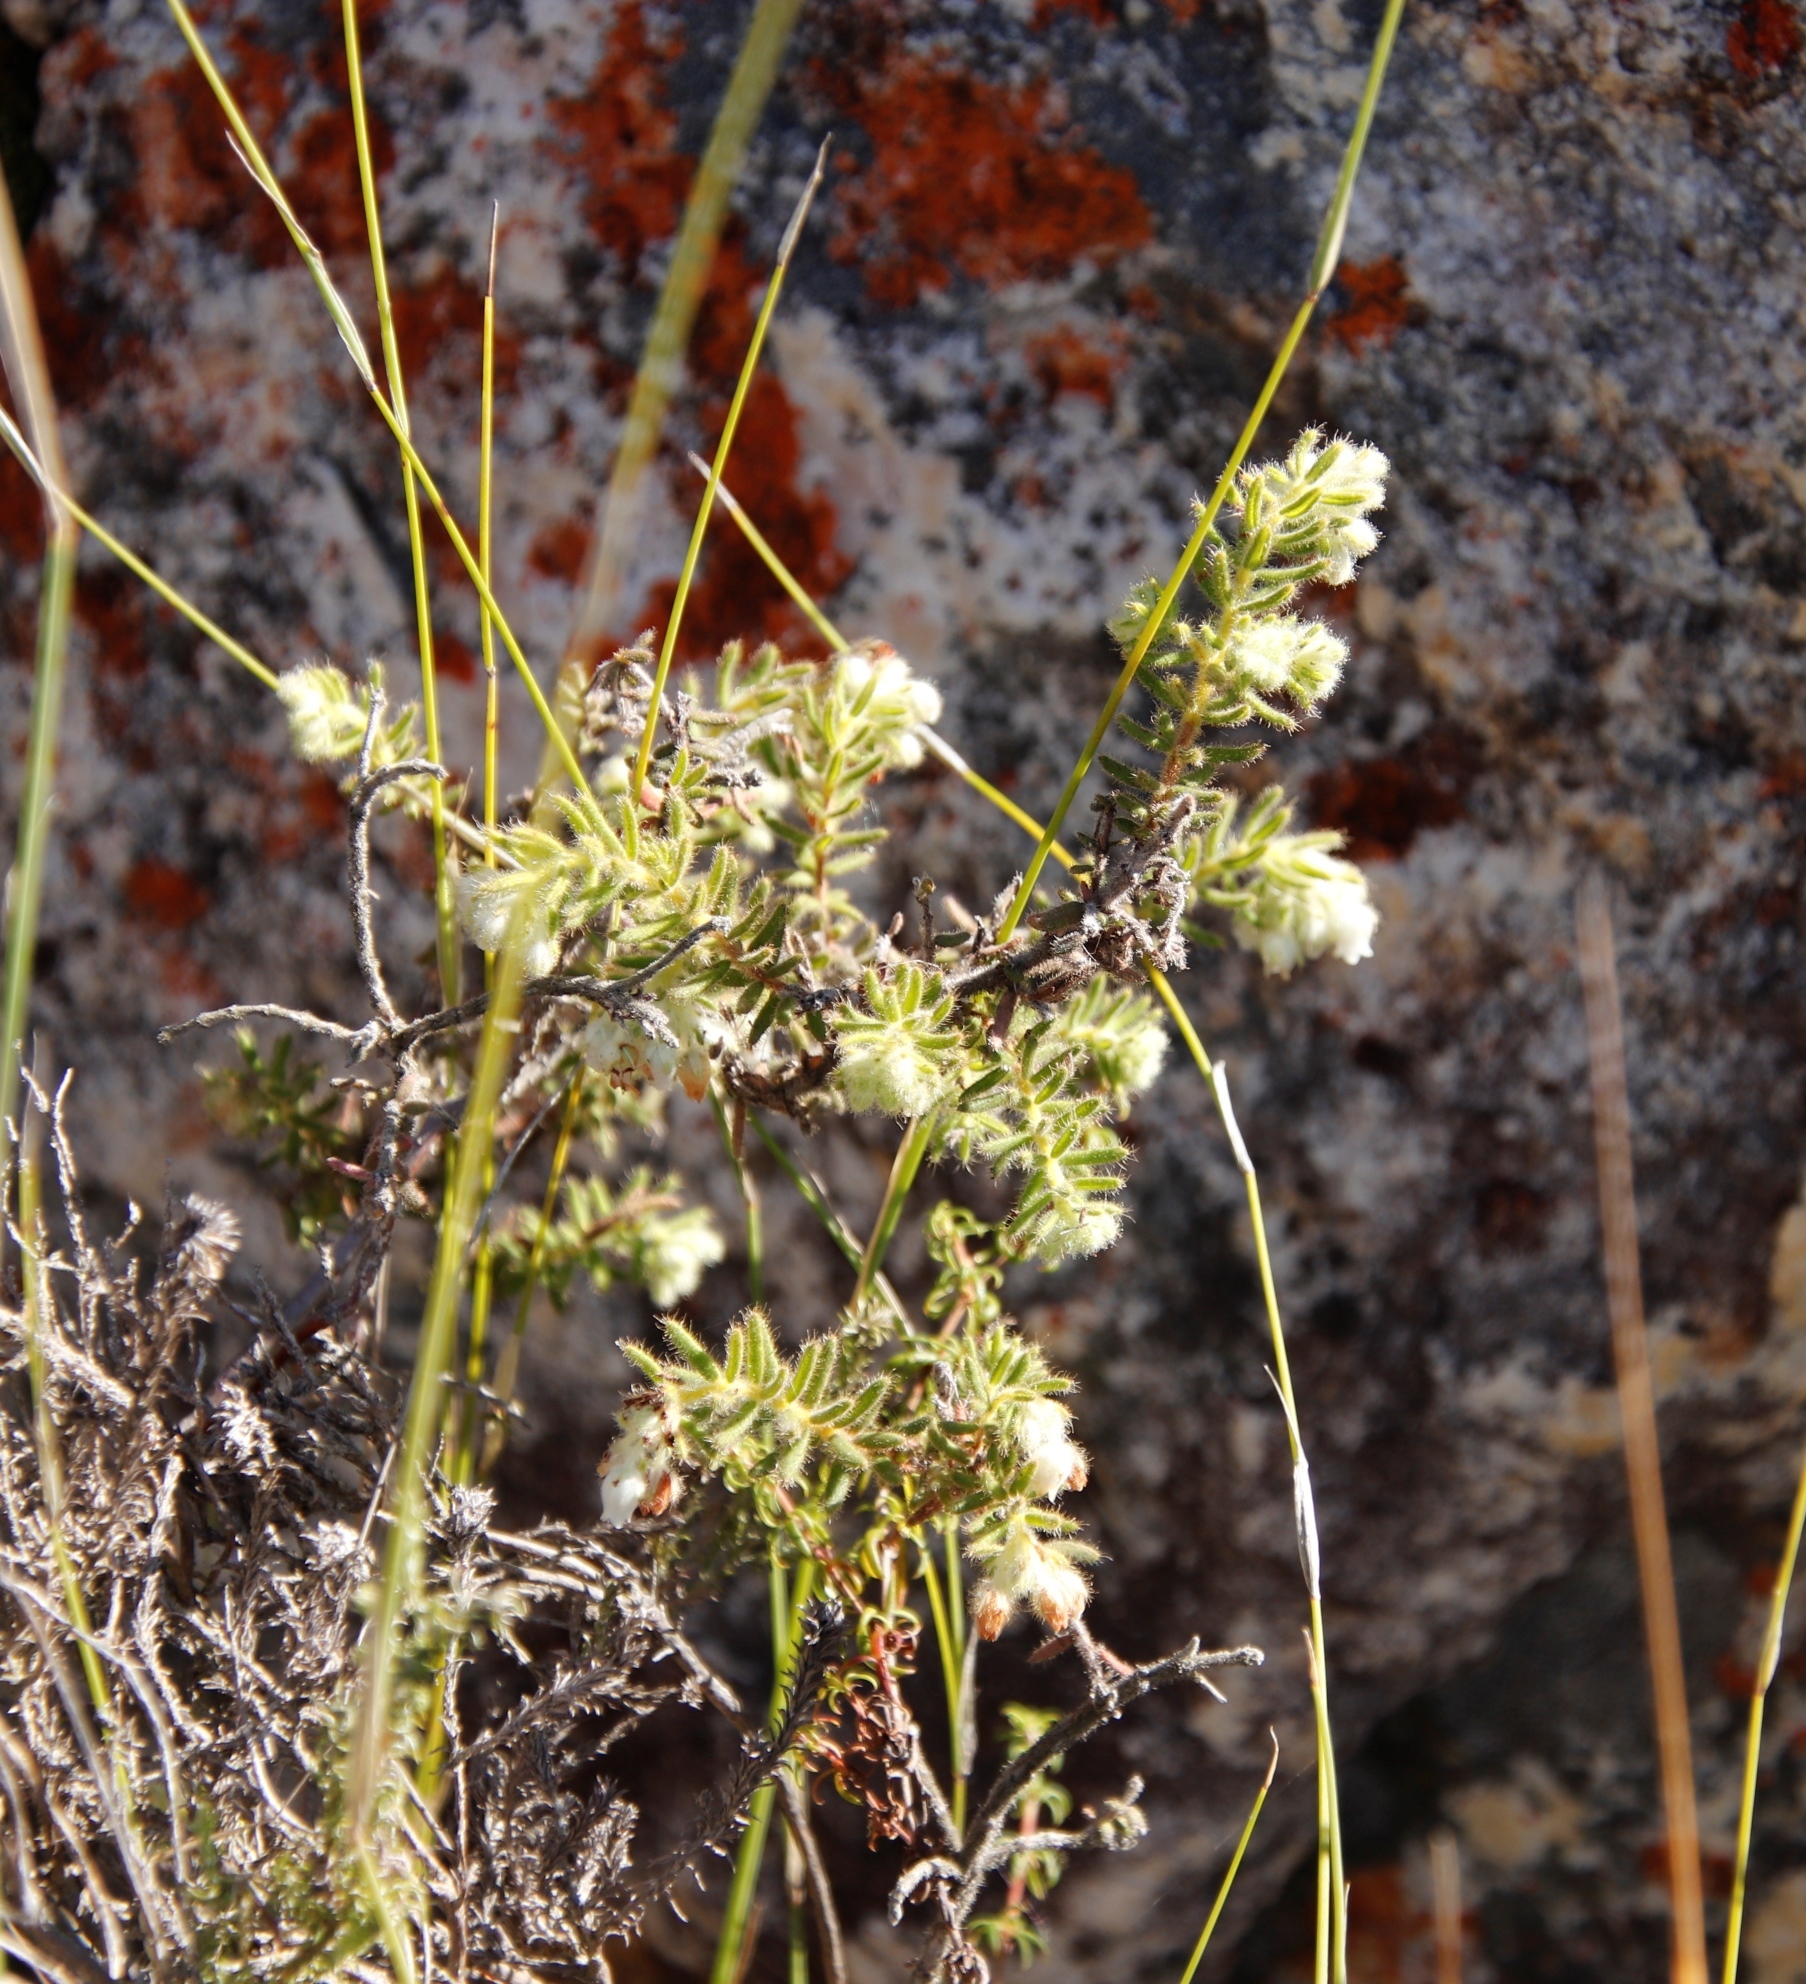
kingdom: Plantae
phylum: Tracheophyta
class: Magnoliopsida
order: Ericales
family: Ericaceae
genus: Erica
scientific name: Erica pannosa
